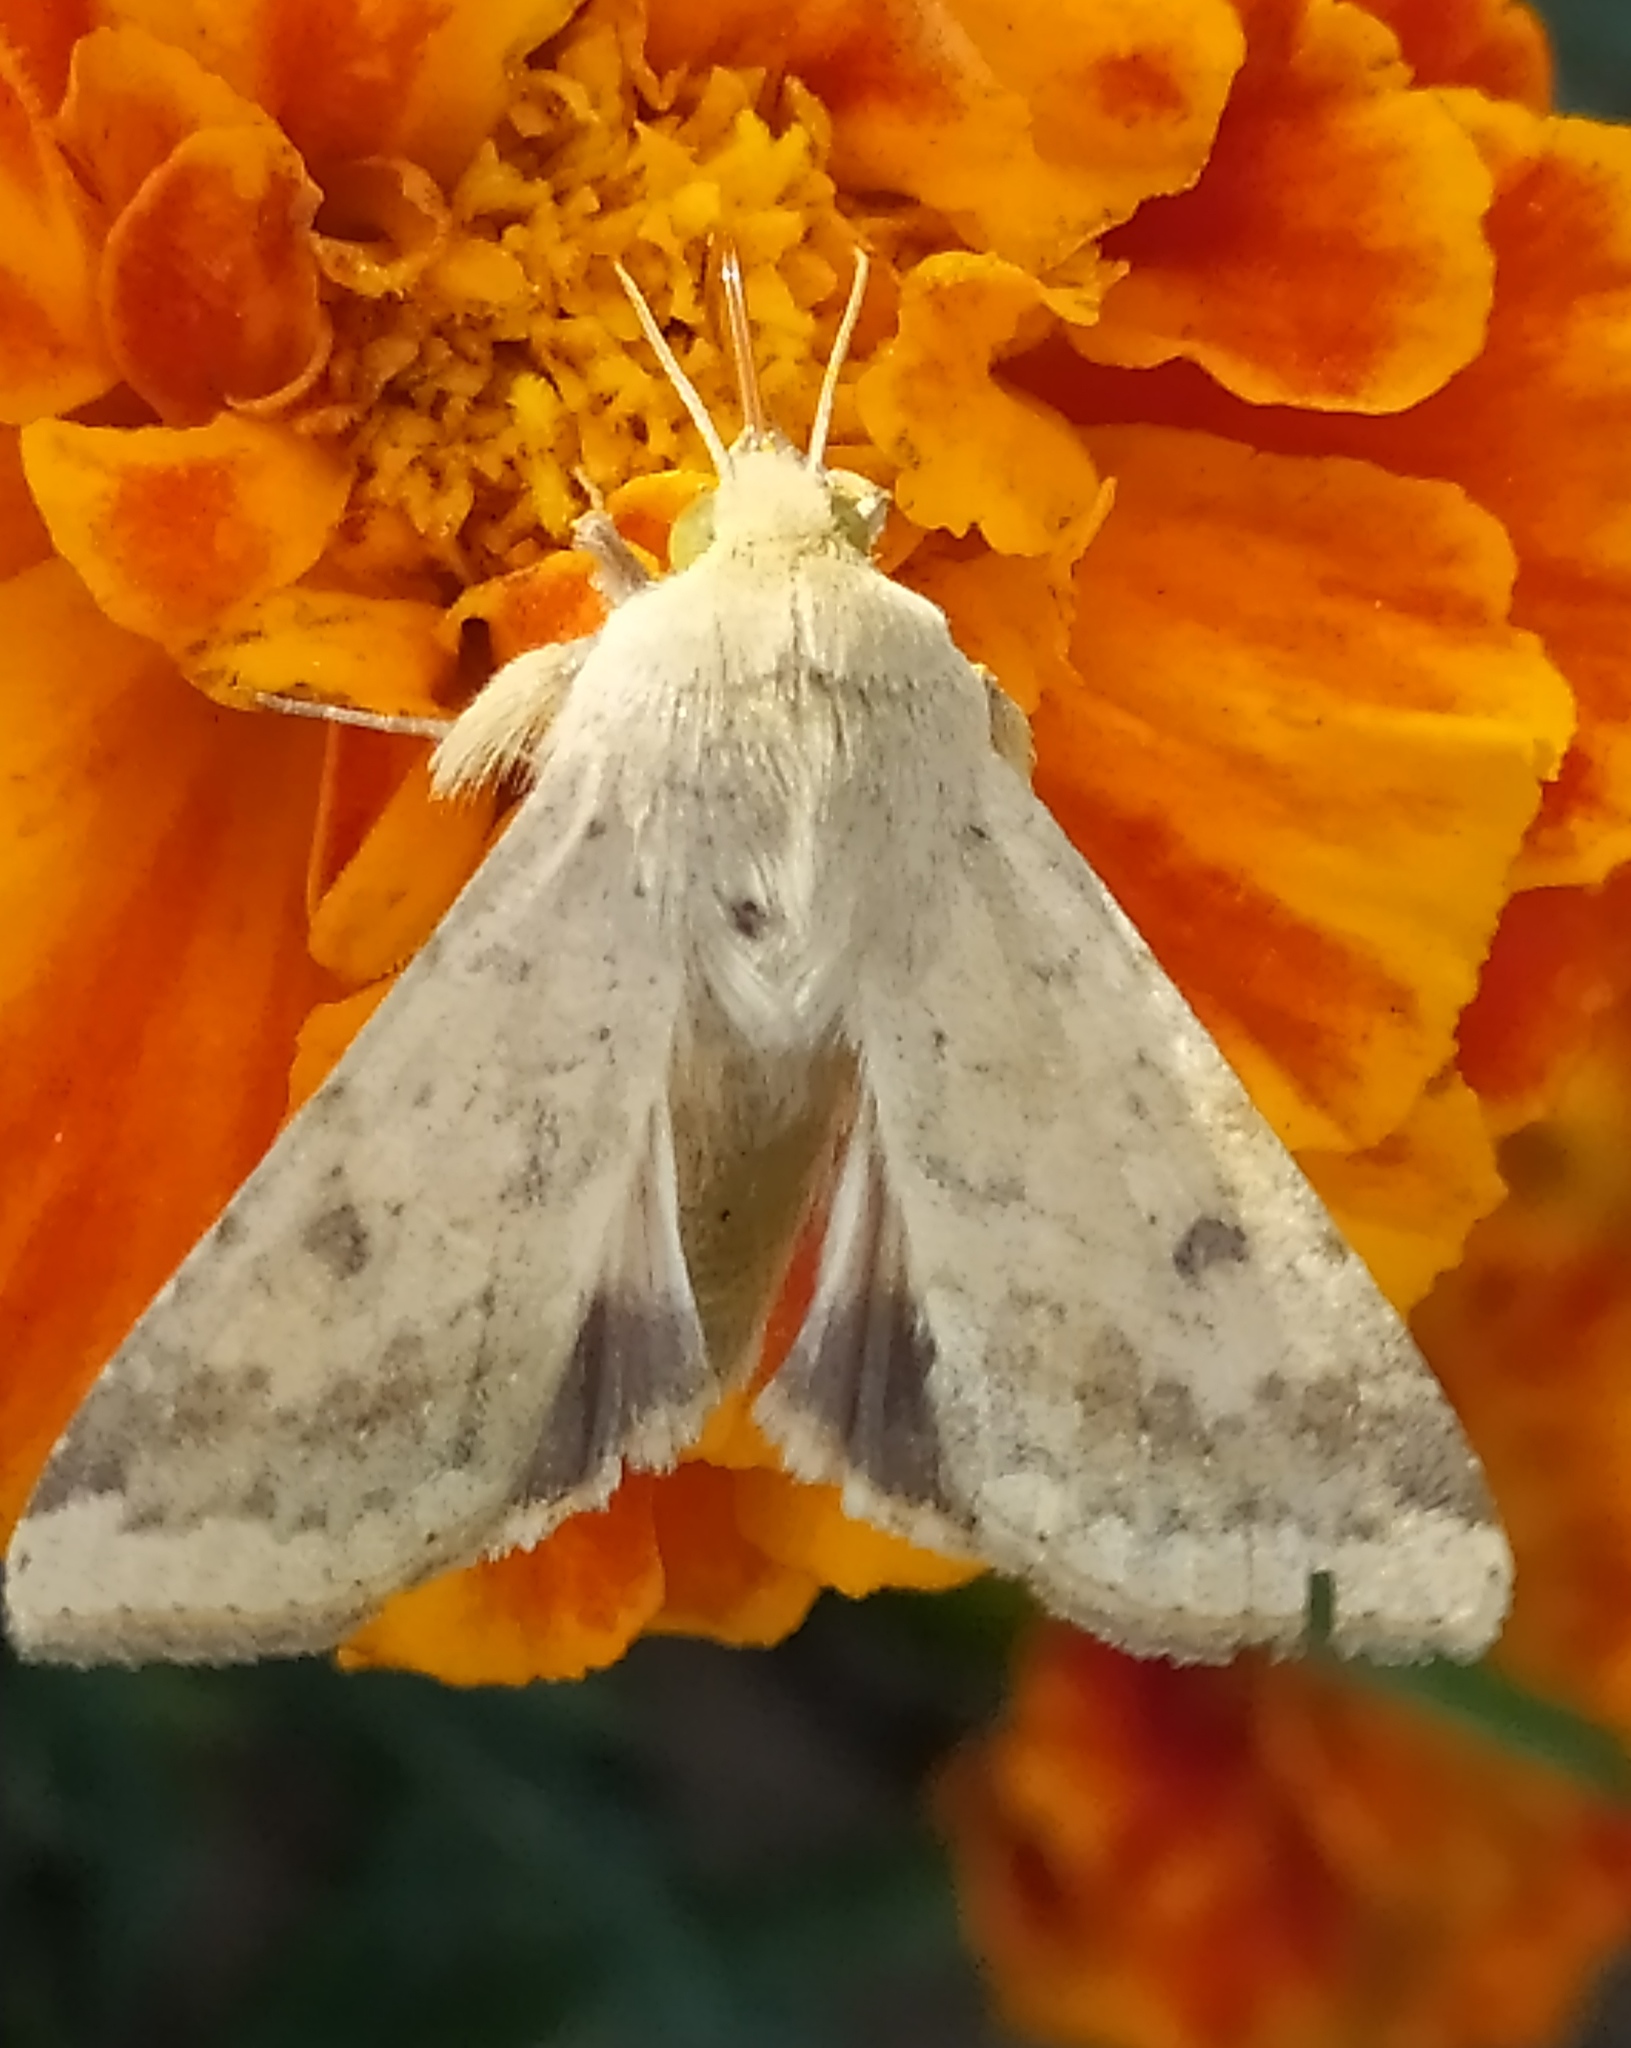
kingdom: Animalia
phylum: Arthropoda
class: Insecta
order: Lepidoptera
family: Noctuidae
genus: Helicoverpa
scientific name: Helicoverpa armigera
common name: Cotton bollworm
